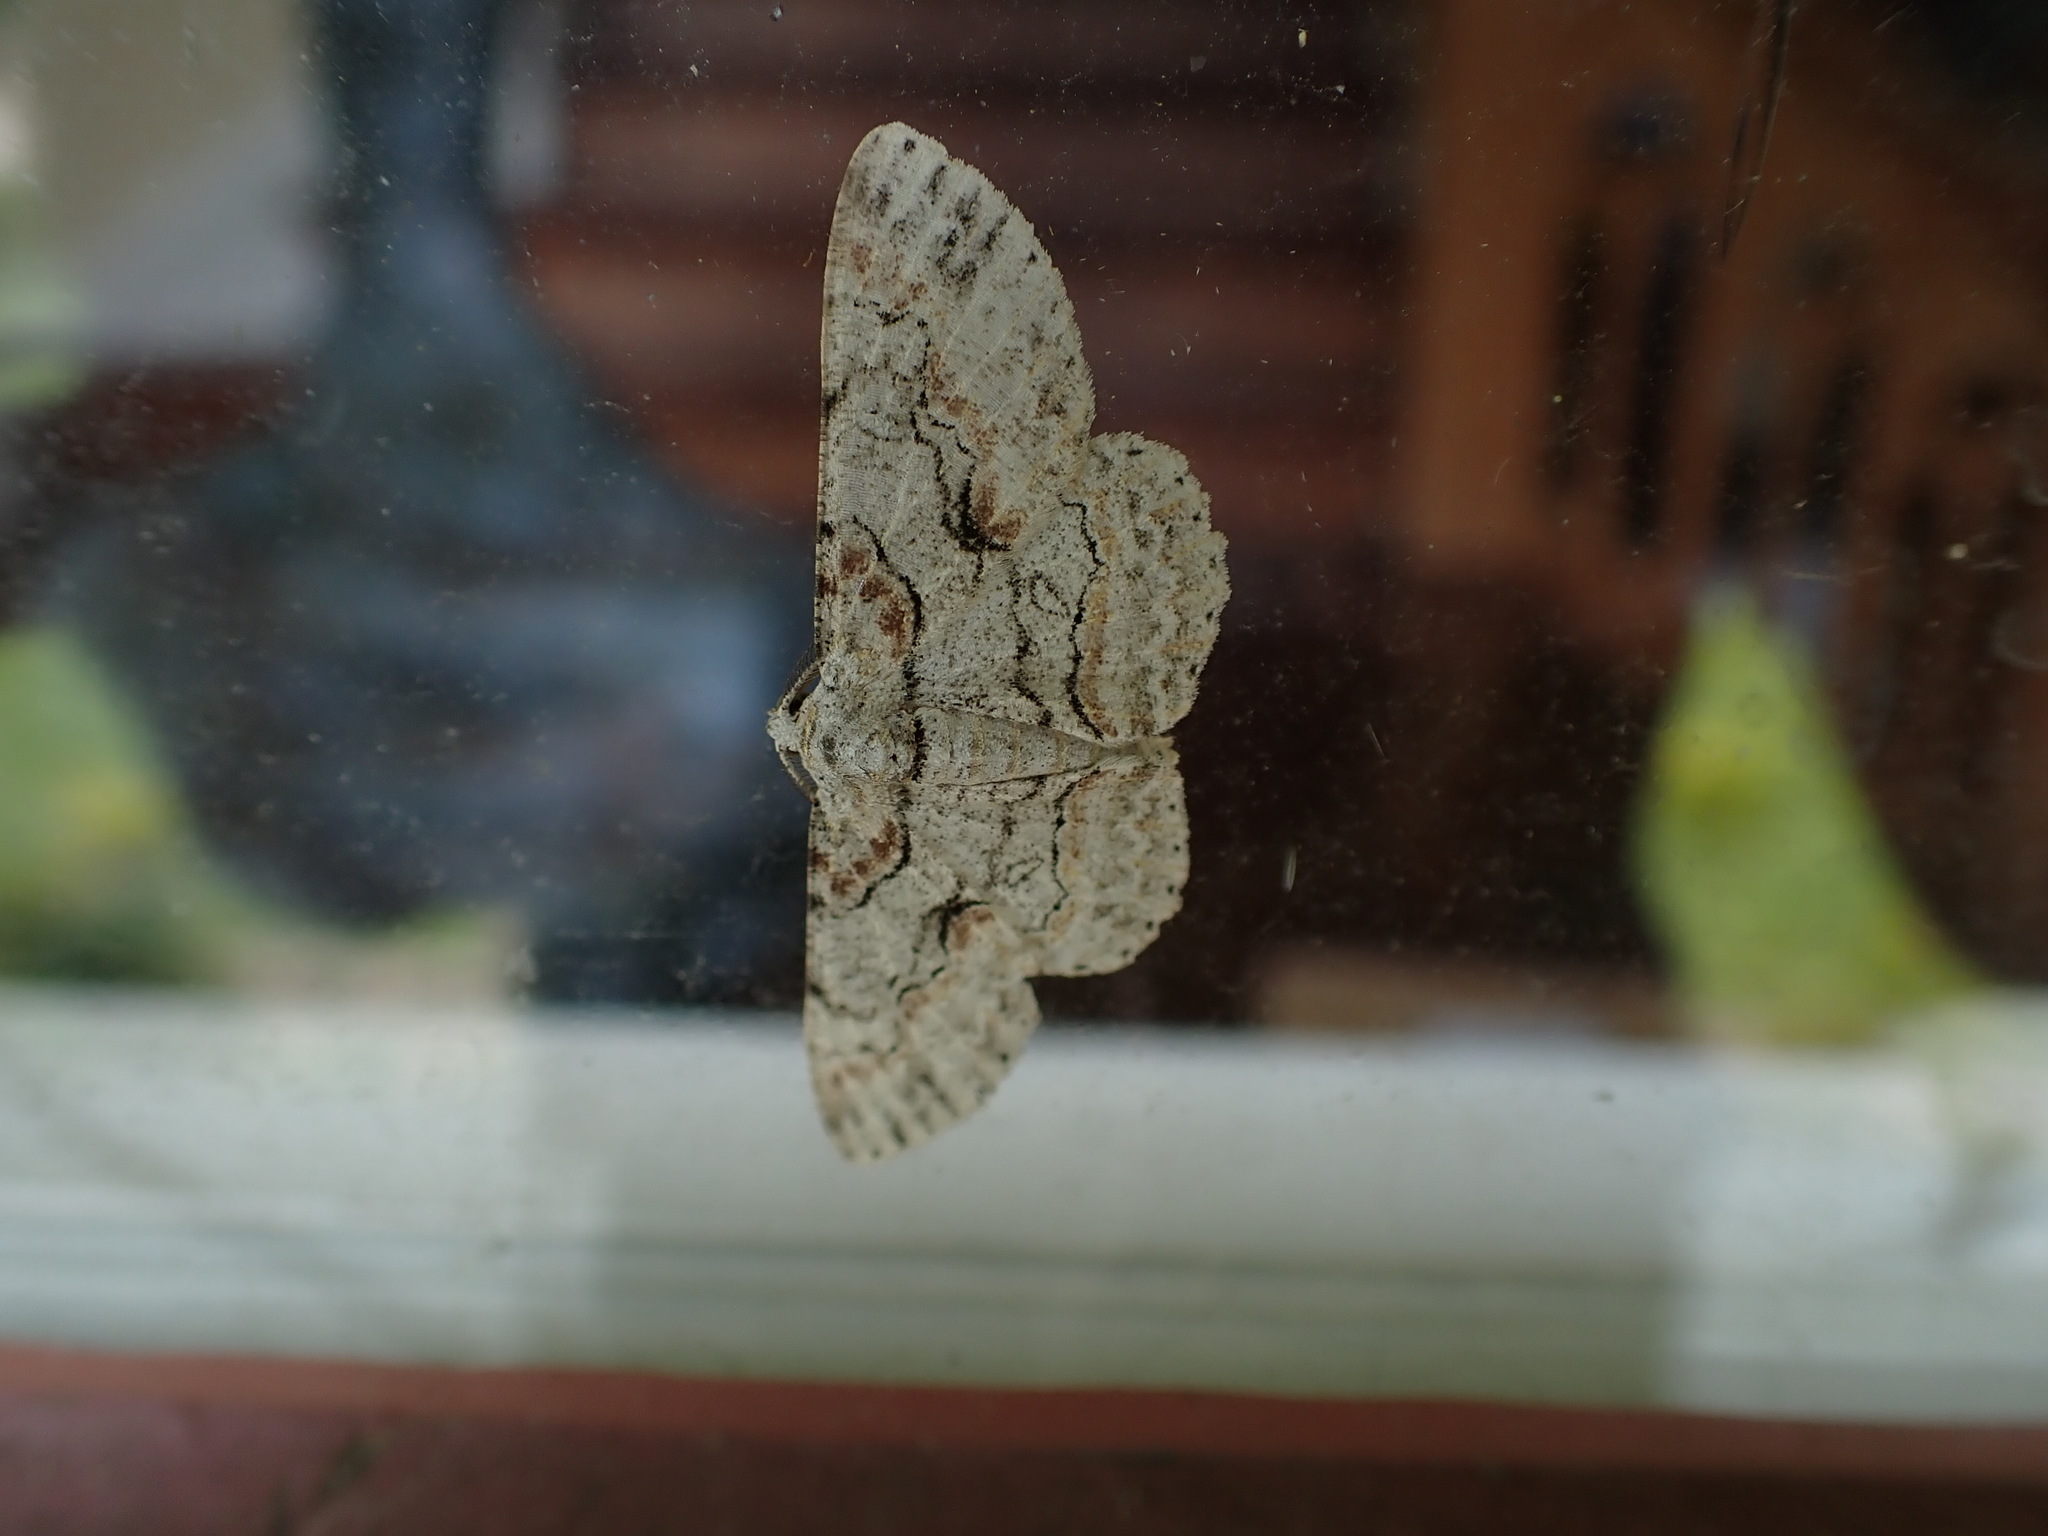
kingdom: Animalia
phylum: Arthropoda
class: Insecta
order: Lepidoptera
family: Geometridae
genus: Iridopsis
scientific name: Iridopsis defectaria
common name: Brown-shaded gray
